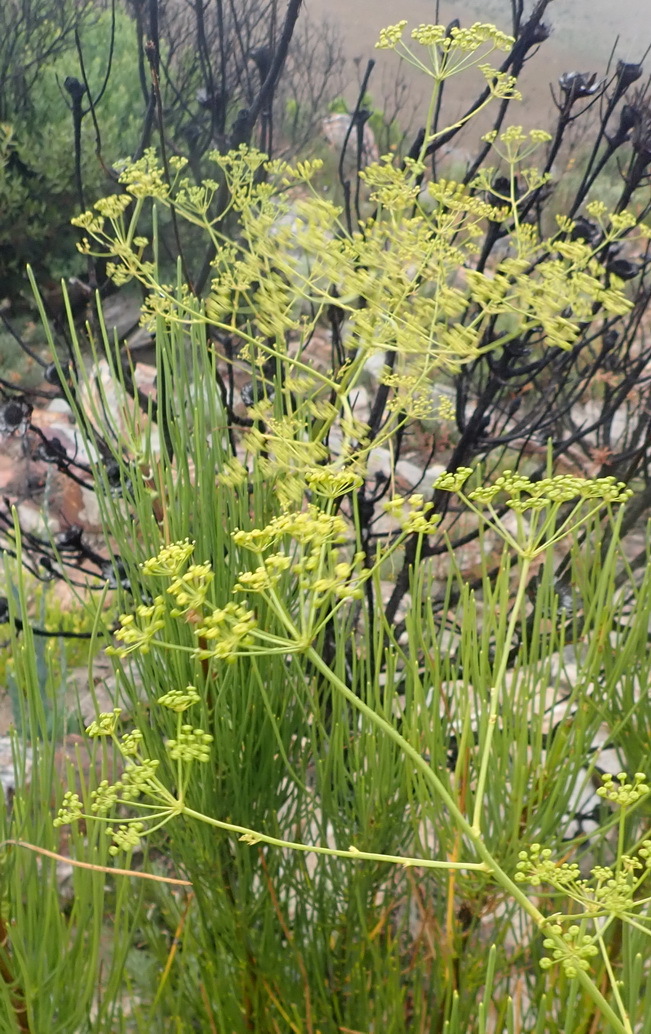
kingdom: Plantae
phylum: Tracheophyta
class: Magnoliopsida
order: Apiales
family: Apiaceae
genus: Anginon
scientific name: Anginon difforme
